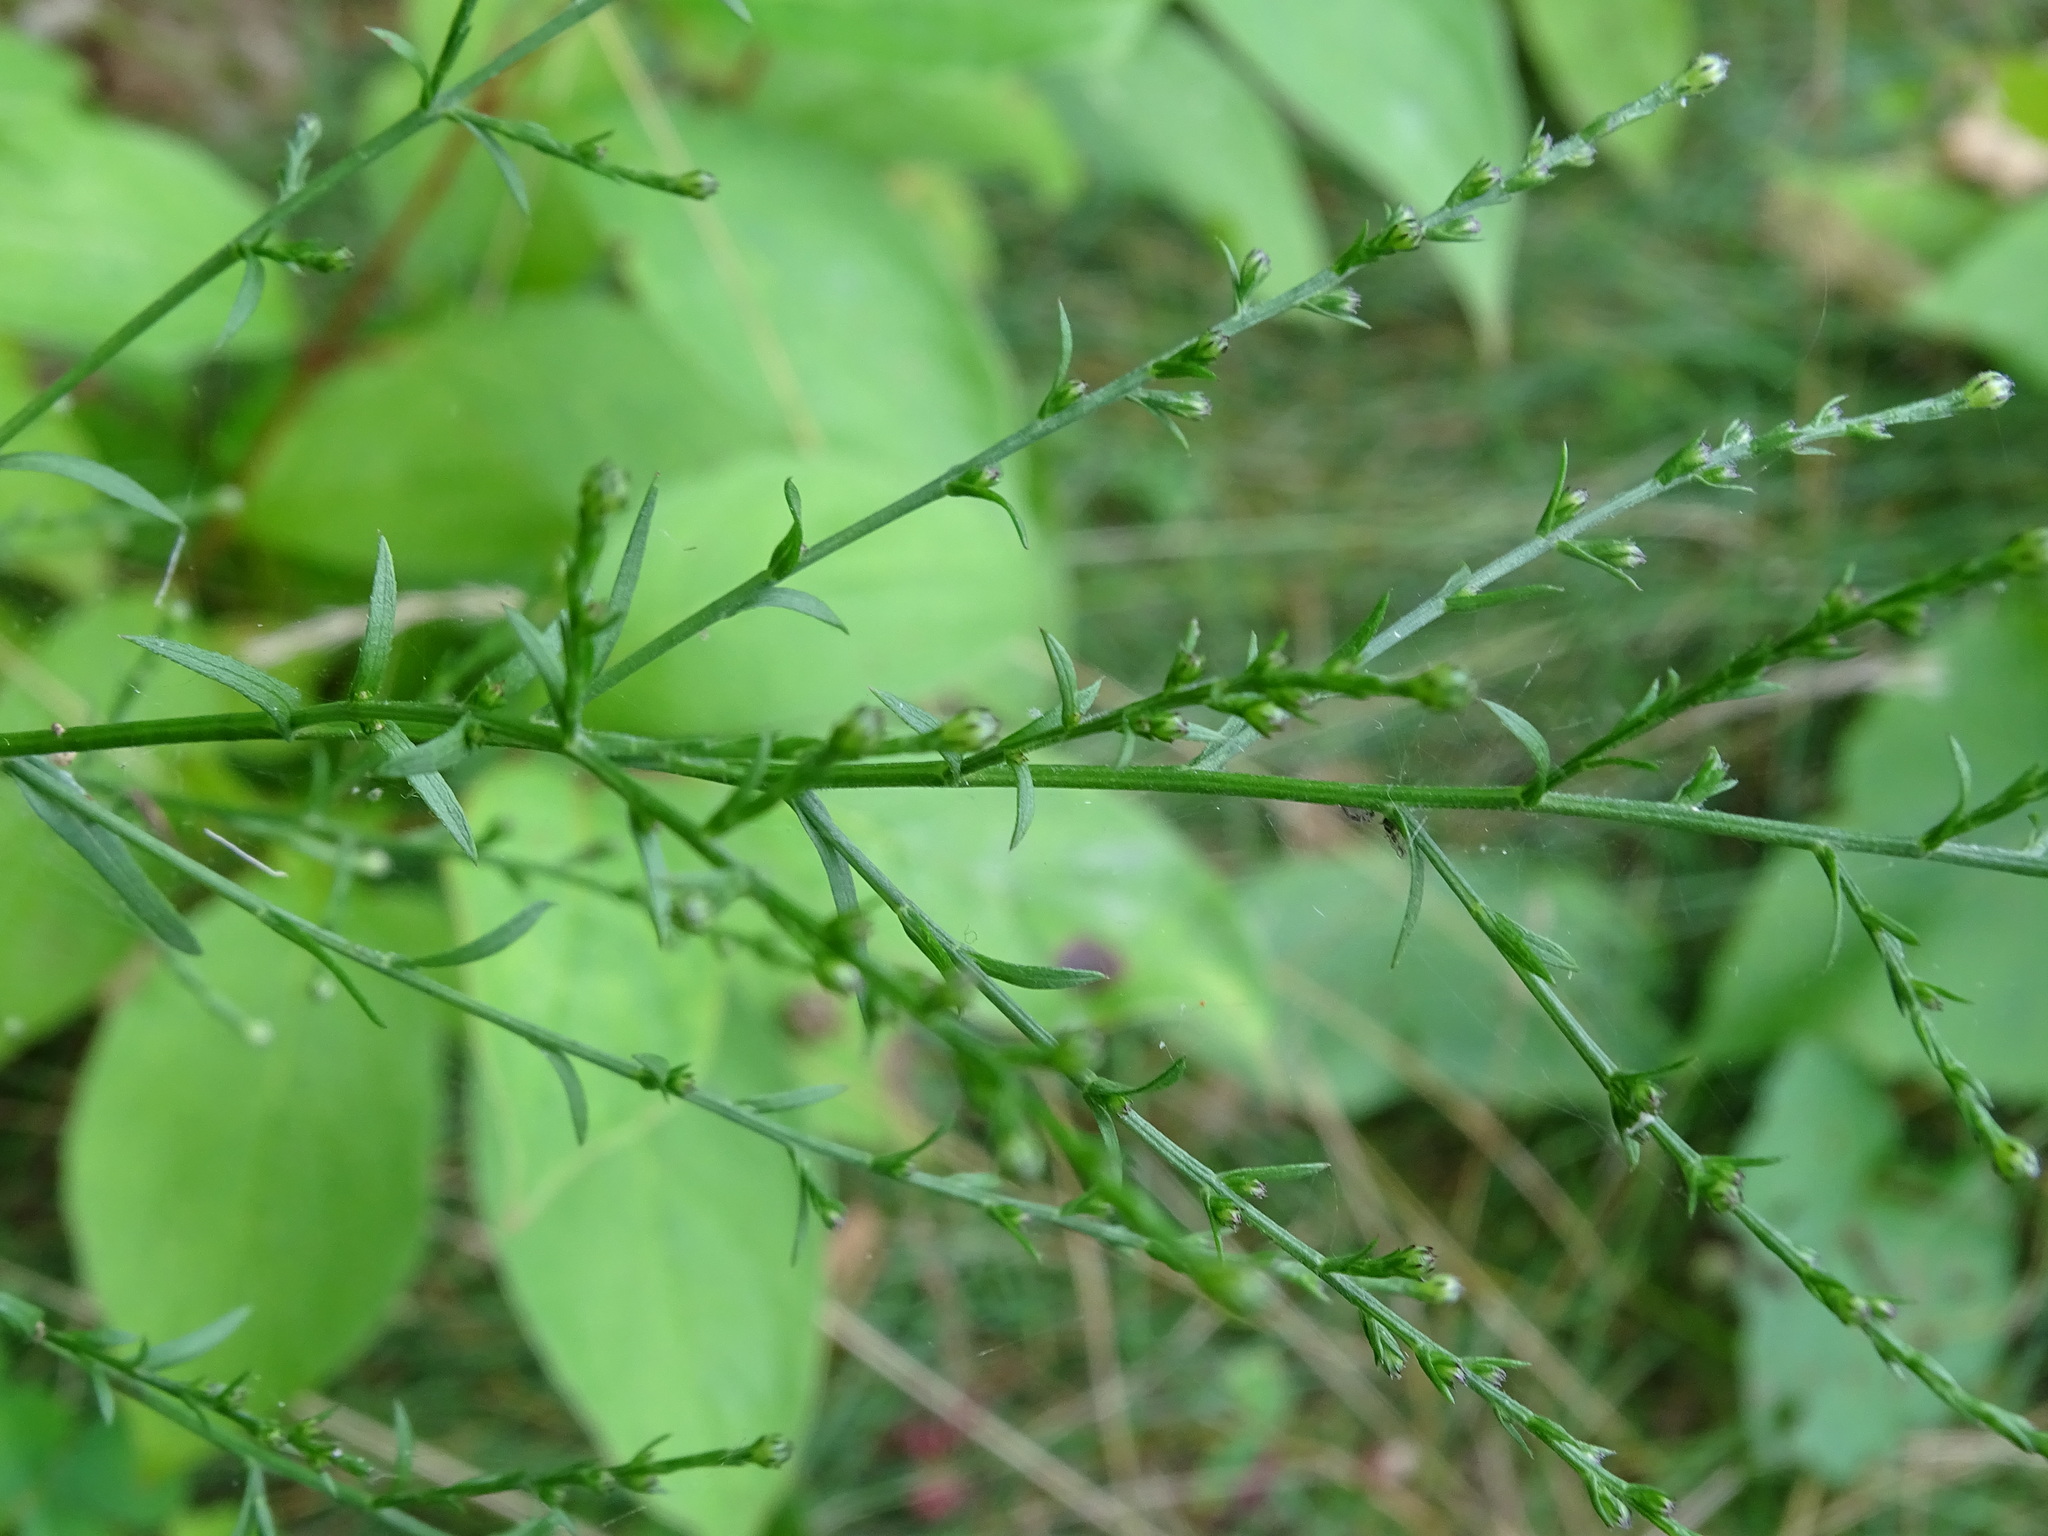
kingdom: Plantae
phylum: Tracheophyta
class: Magnoliopsida
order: Asterales
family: Asteraceae
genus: Symphyotrichum
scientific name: Symphyotrichum oolentangiense
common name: Azure aster
